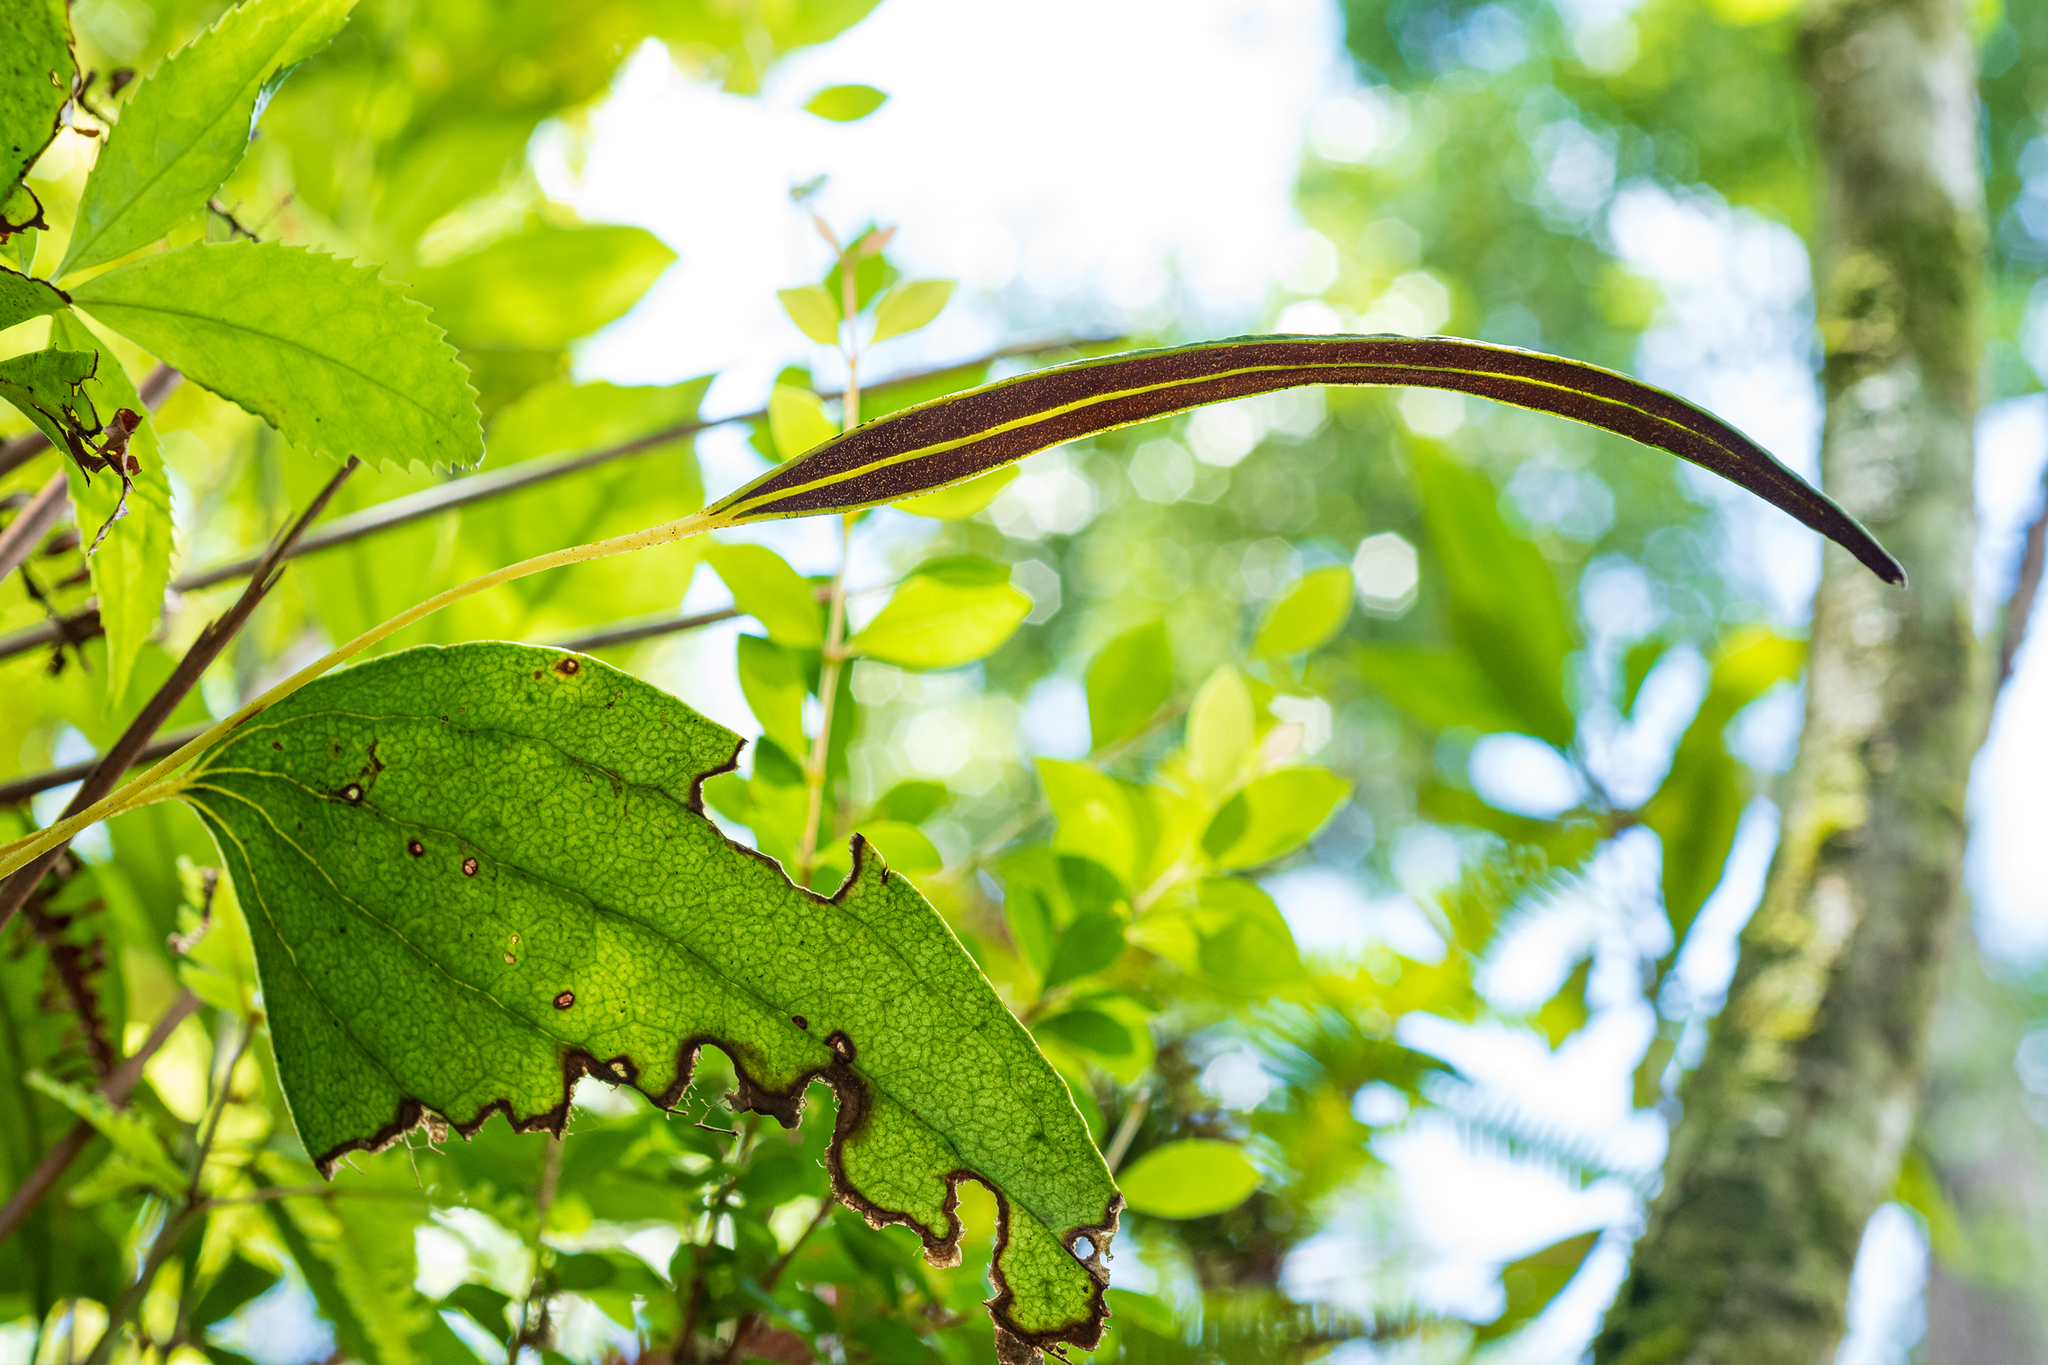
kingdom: Plantae
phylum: Tracheophyta
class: Polypodiopsida
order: Gleicheniales
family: Dipteridaceae
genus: Cheiropleuria
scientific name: Cheiropleuria integrifolia
